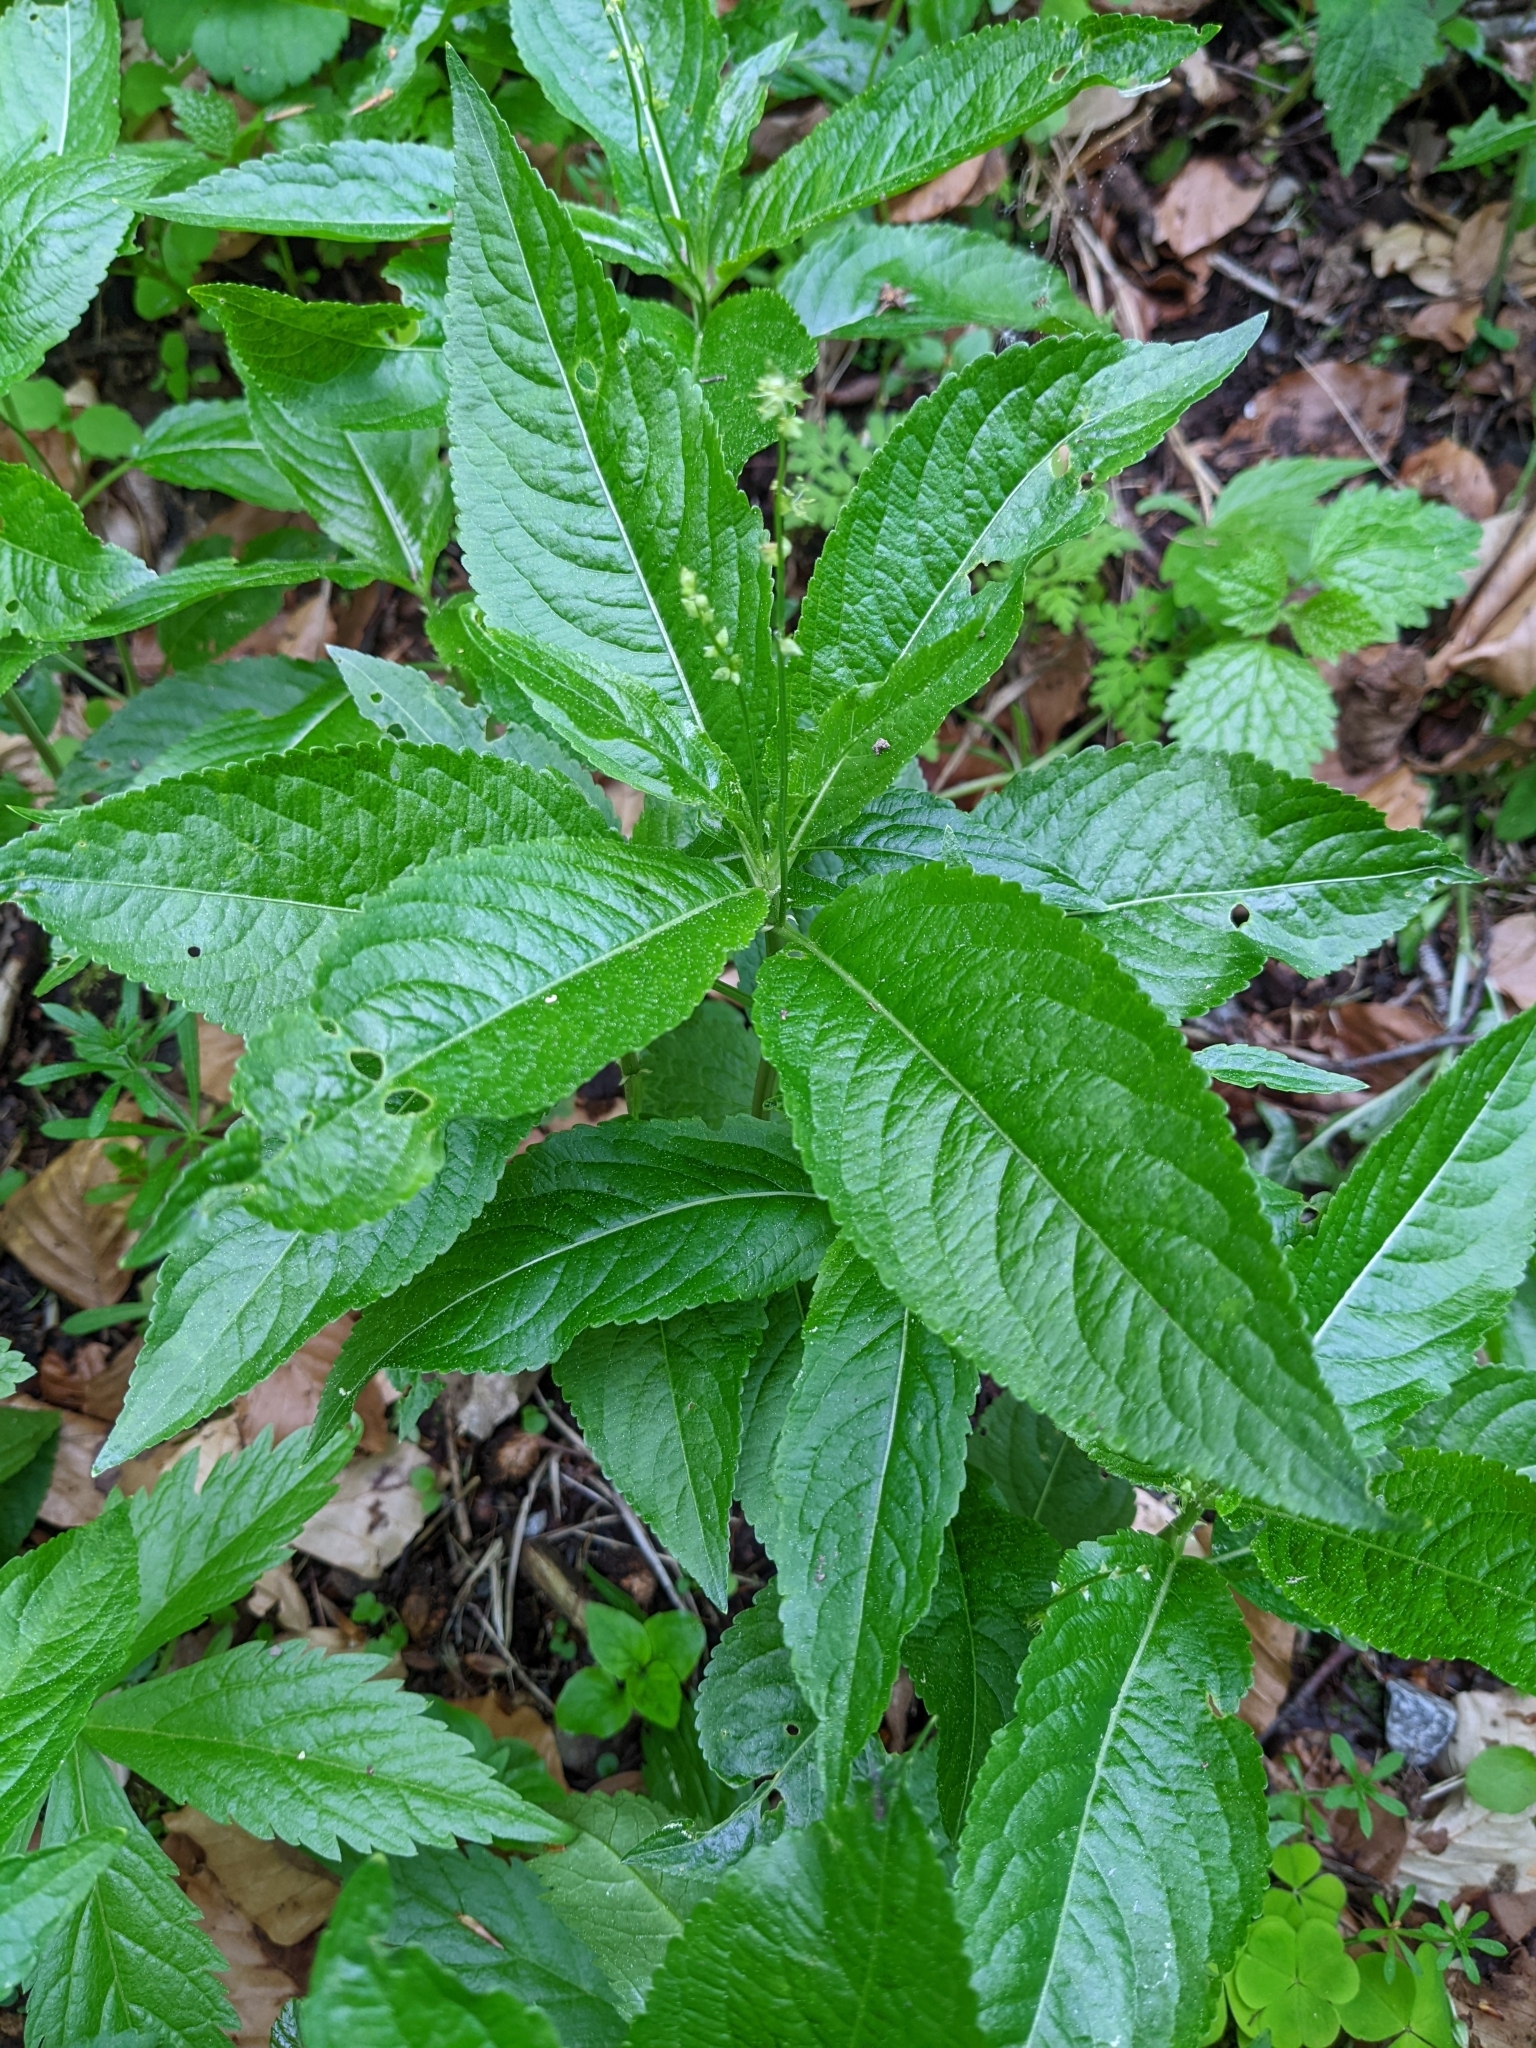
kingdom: Plantae
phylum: Tracheophyta
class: Magnoliopsida
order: Malpighiales
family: Euphorbiaceae
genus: Mercurialis
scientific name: Mercurialis perennis
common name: Dog mercury
